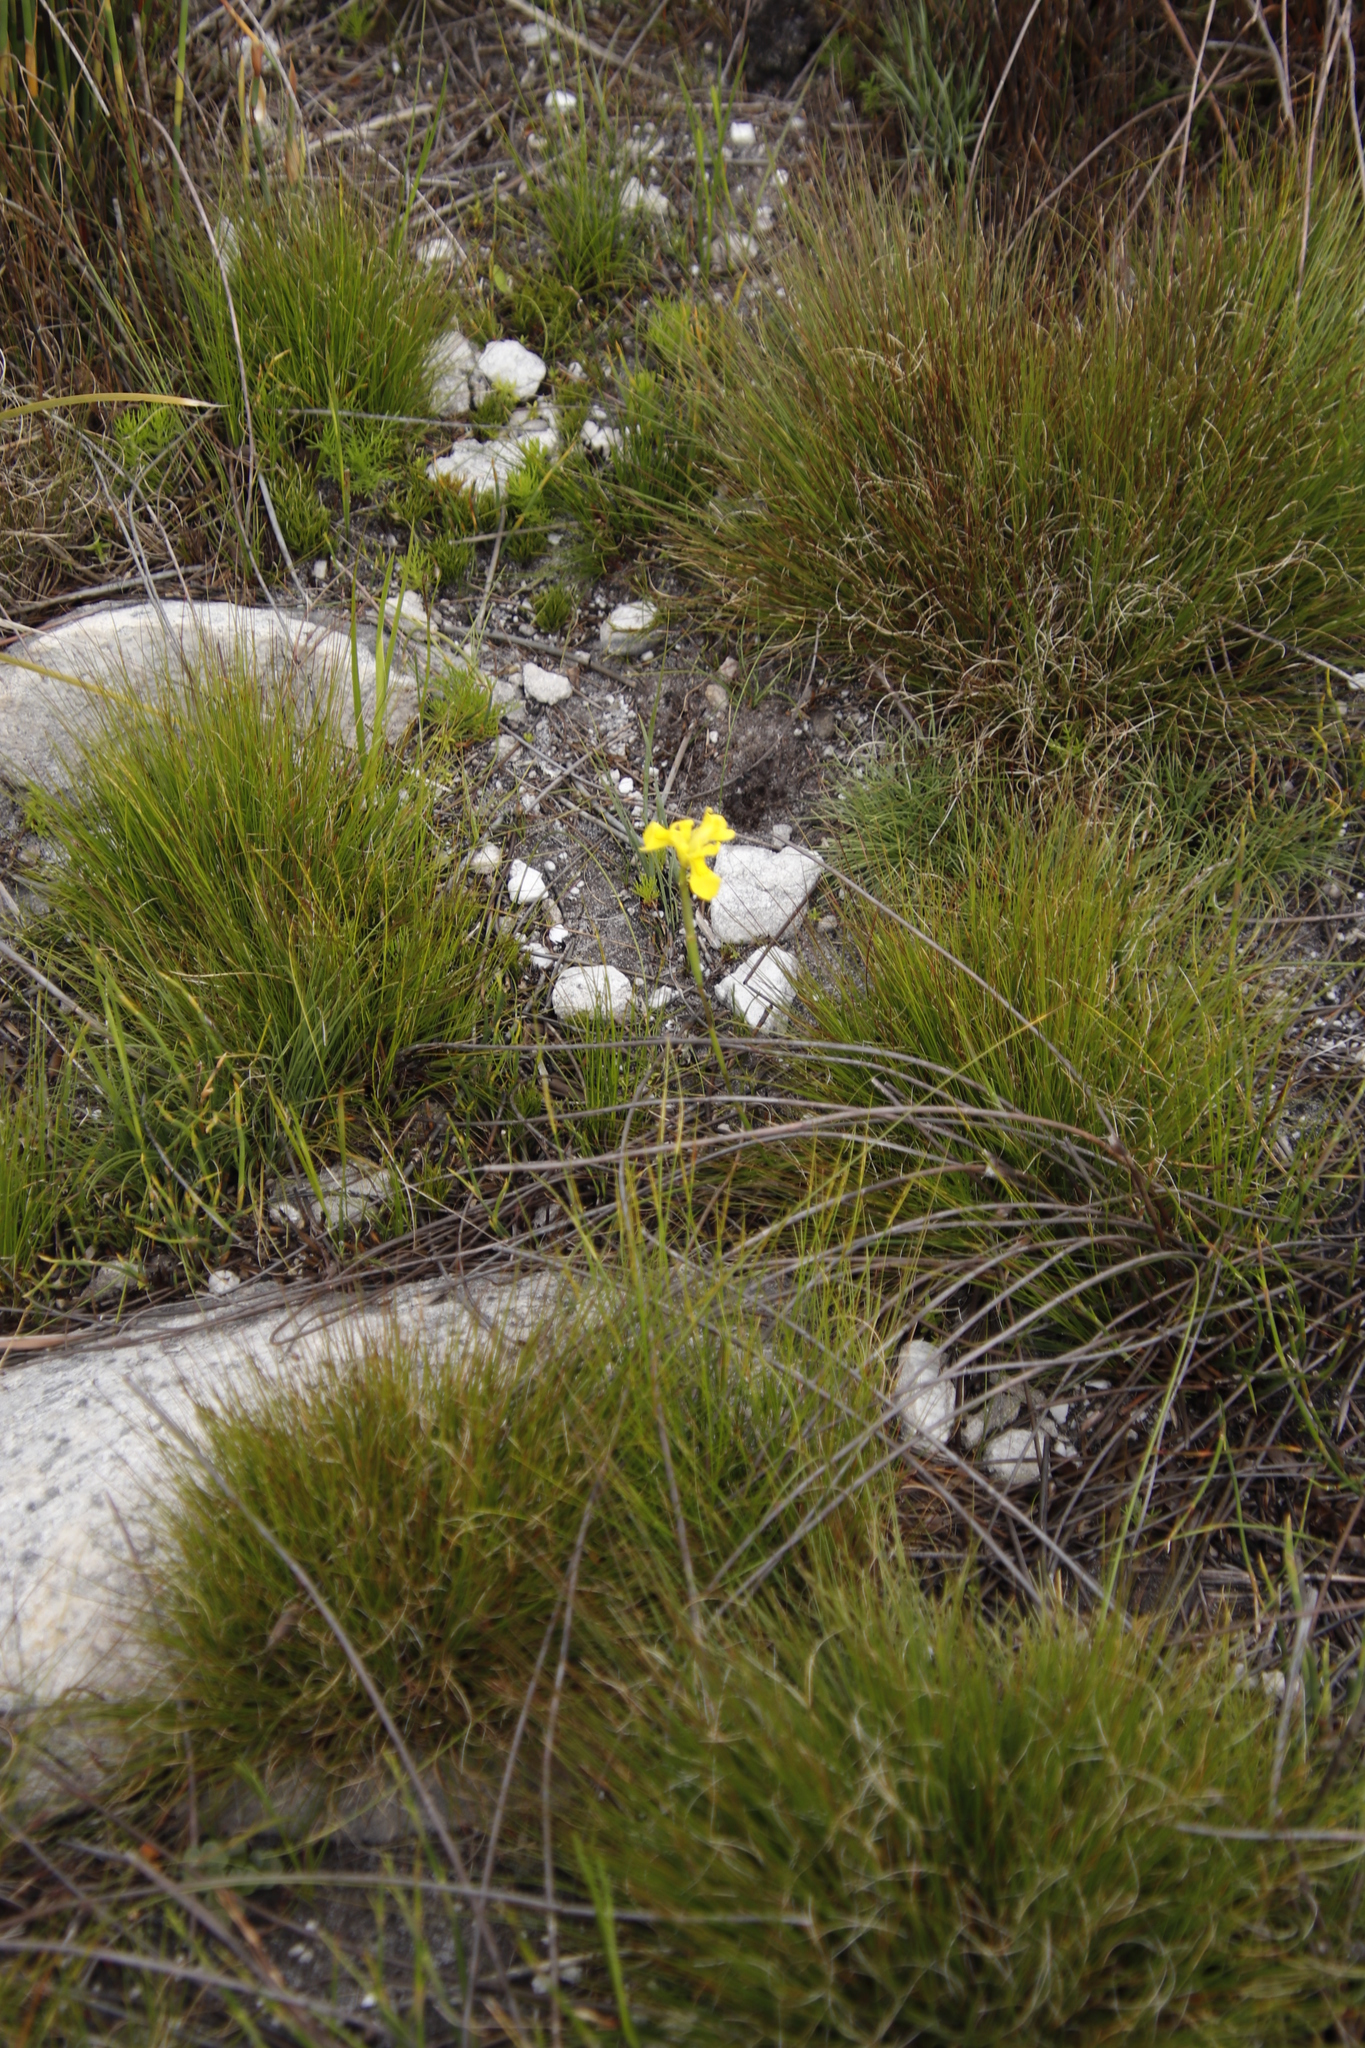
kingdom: Plantae
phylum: Tracheophyta
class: Liliopsida
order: Asparagales
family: Iridaceae
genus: Moraea
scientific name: Moraea neglecta
